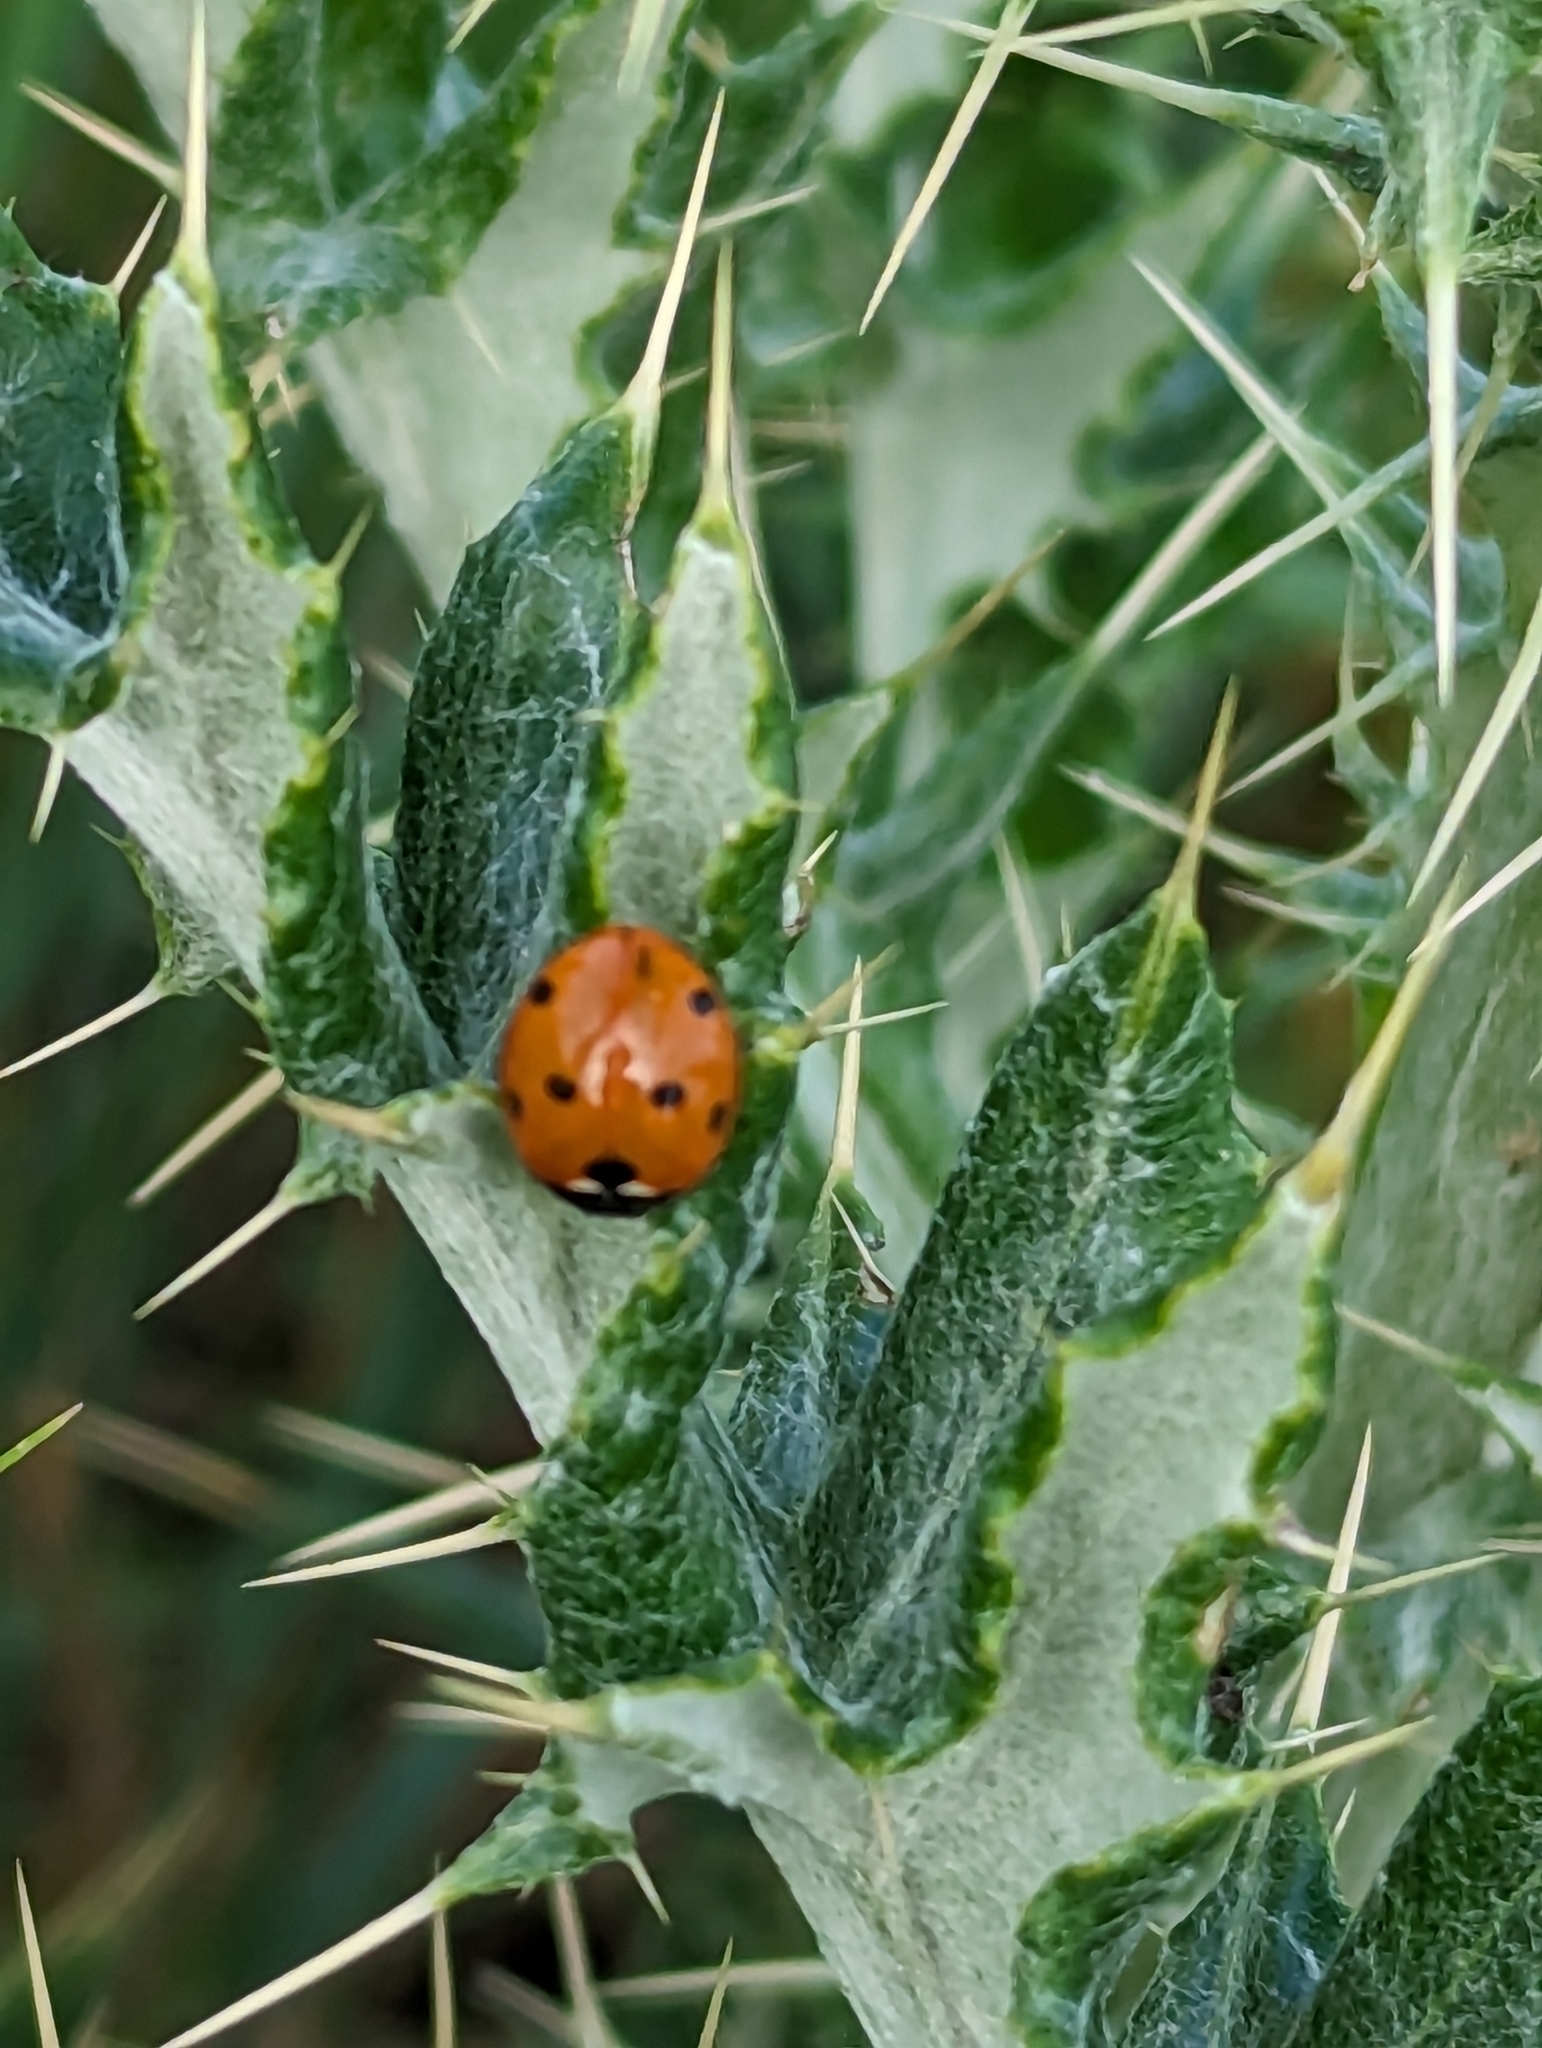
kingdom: Animalia
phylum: Arthropoda
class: Insecta
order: Coleoptera
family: Coccinellidae
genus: Coccinella
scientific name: Coccinella septempunctata
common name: Sevenspotted lady beetle
